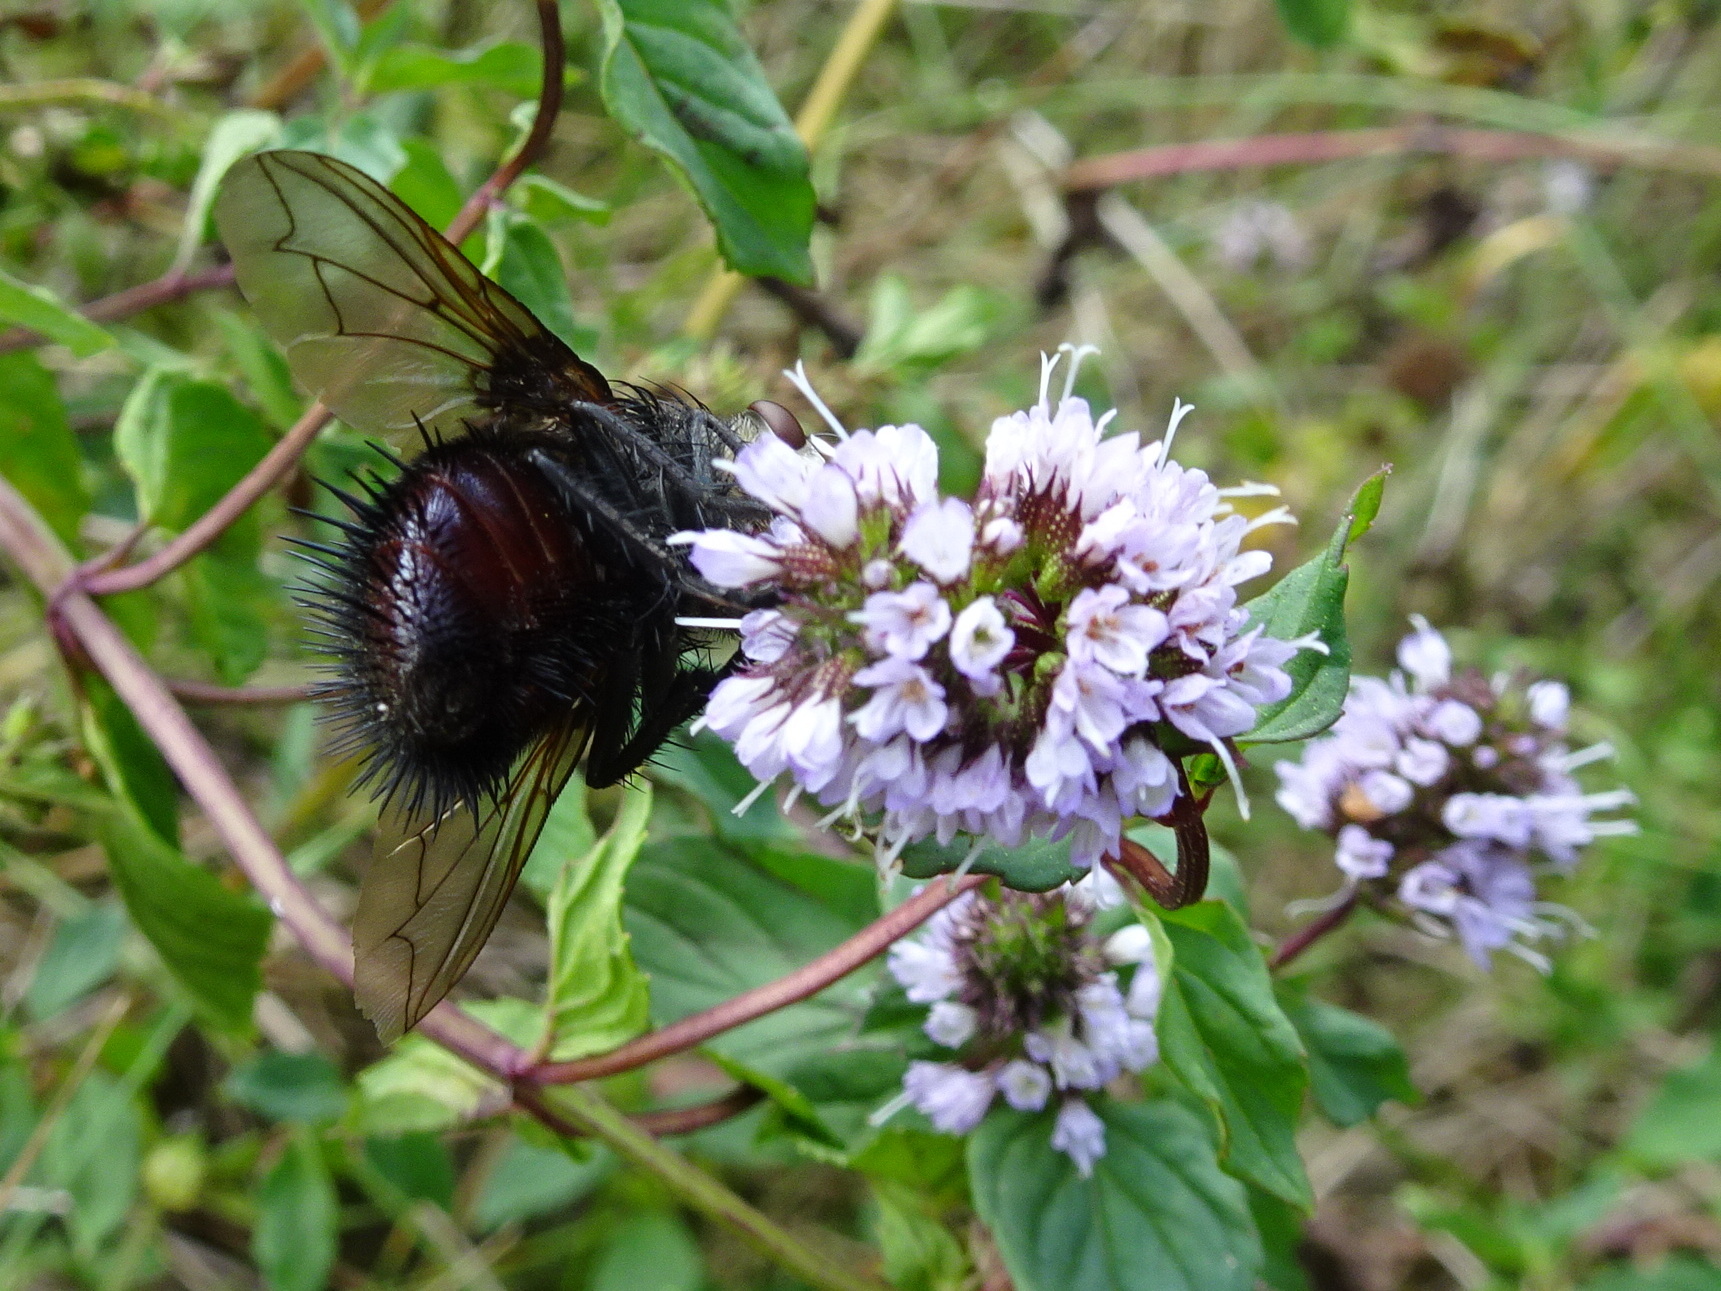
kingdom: Animalia
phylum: Arthropoda
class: Insecta
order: Diptera
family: Tachinidae
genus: Juriniopsis
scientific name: Juriniopsis adusta
